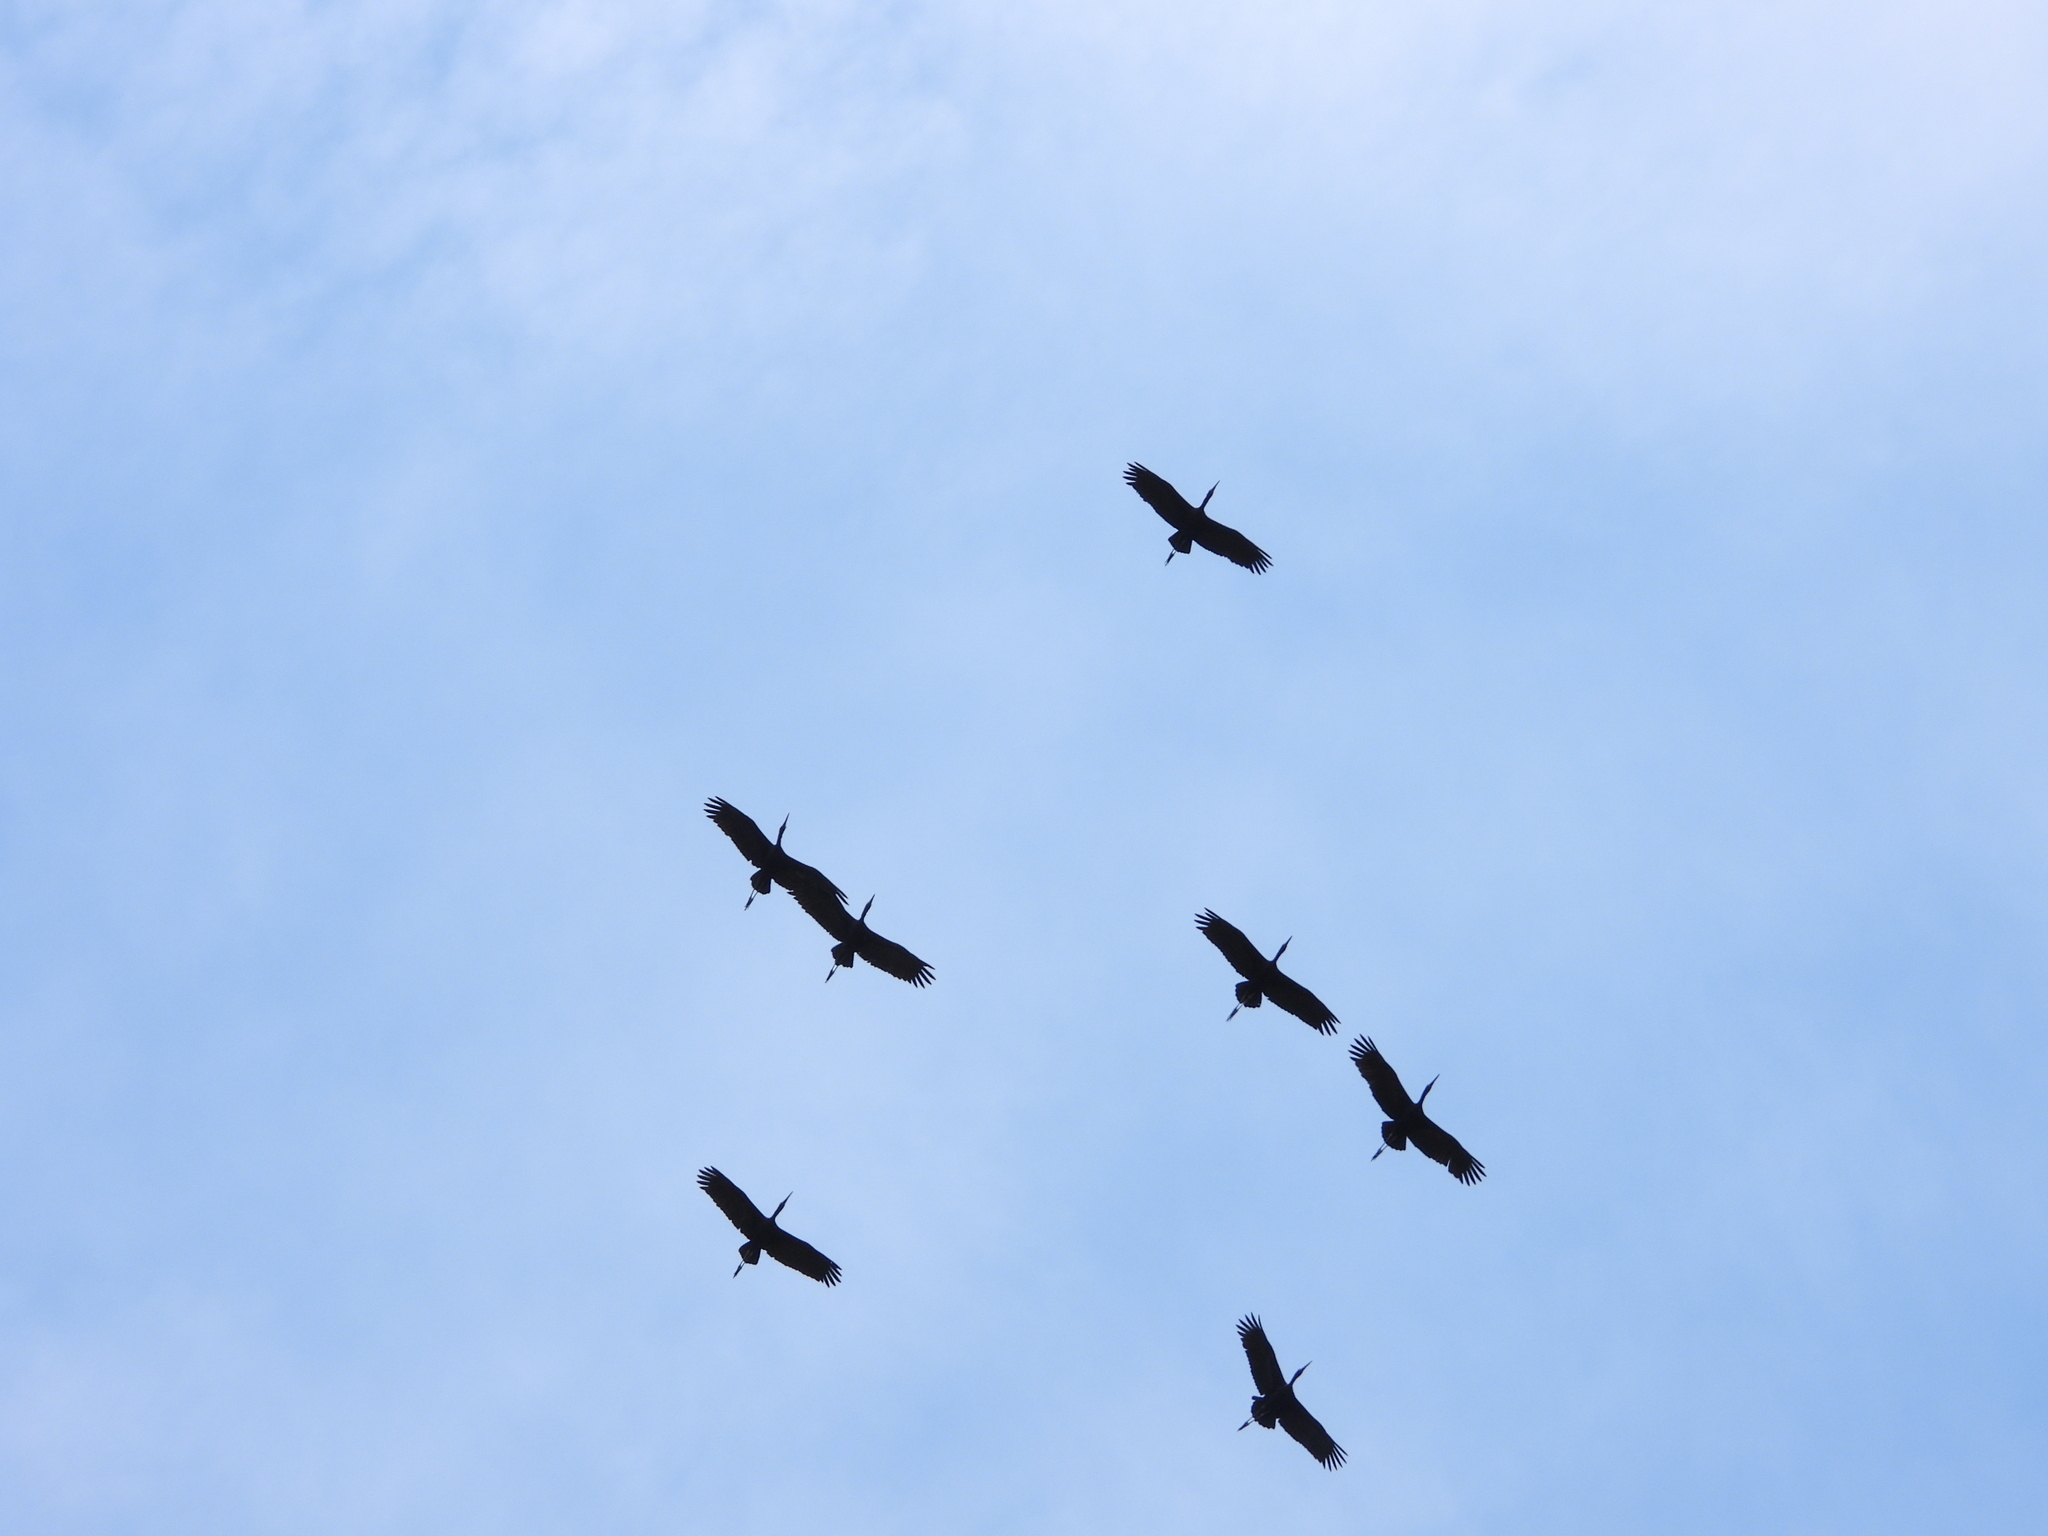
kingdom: Animalia
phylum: Chordata
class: Aves
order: Ciconiiformes
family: Ciconiidae
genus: Anastomus
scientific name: Anastomus lamelligerus
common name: African openbill
